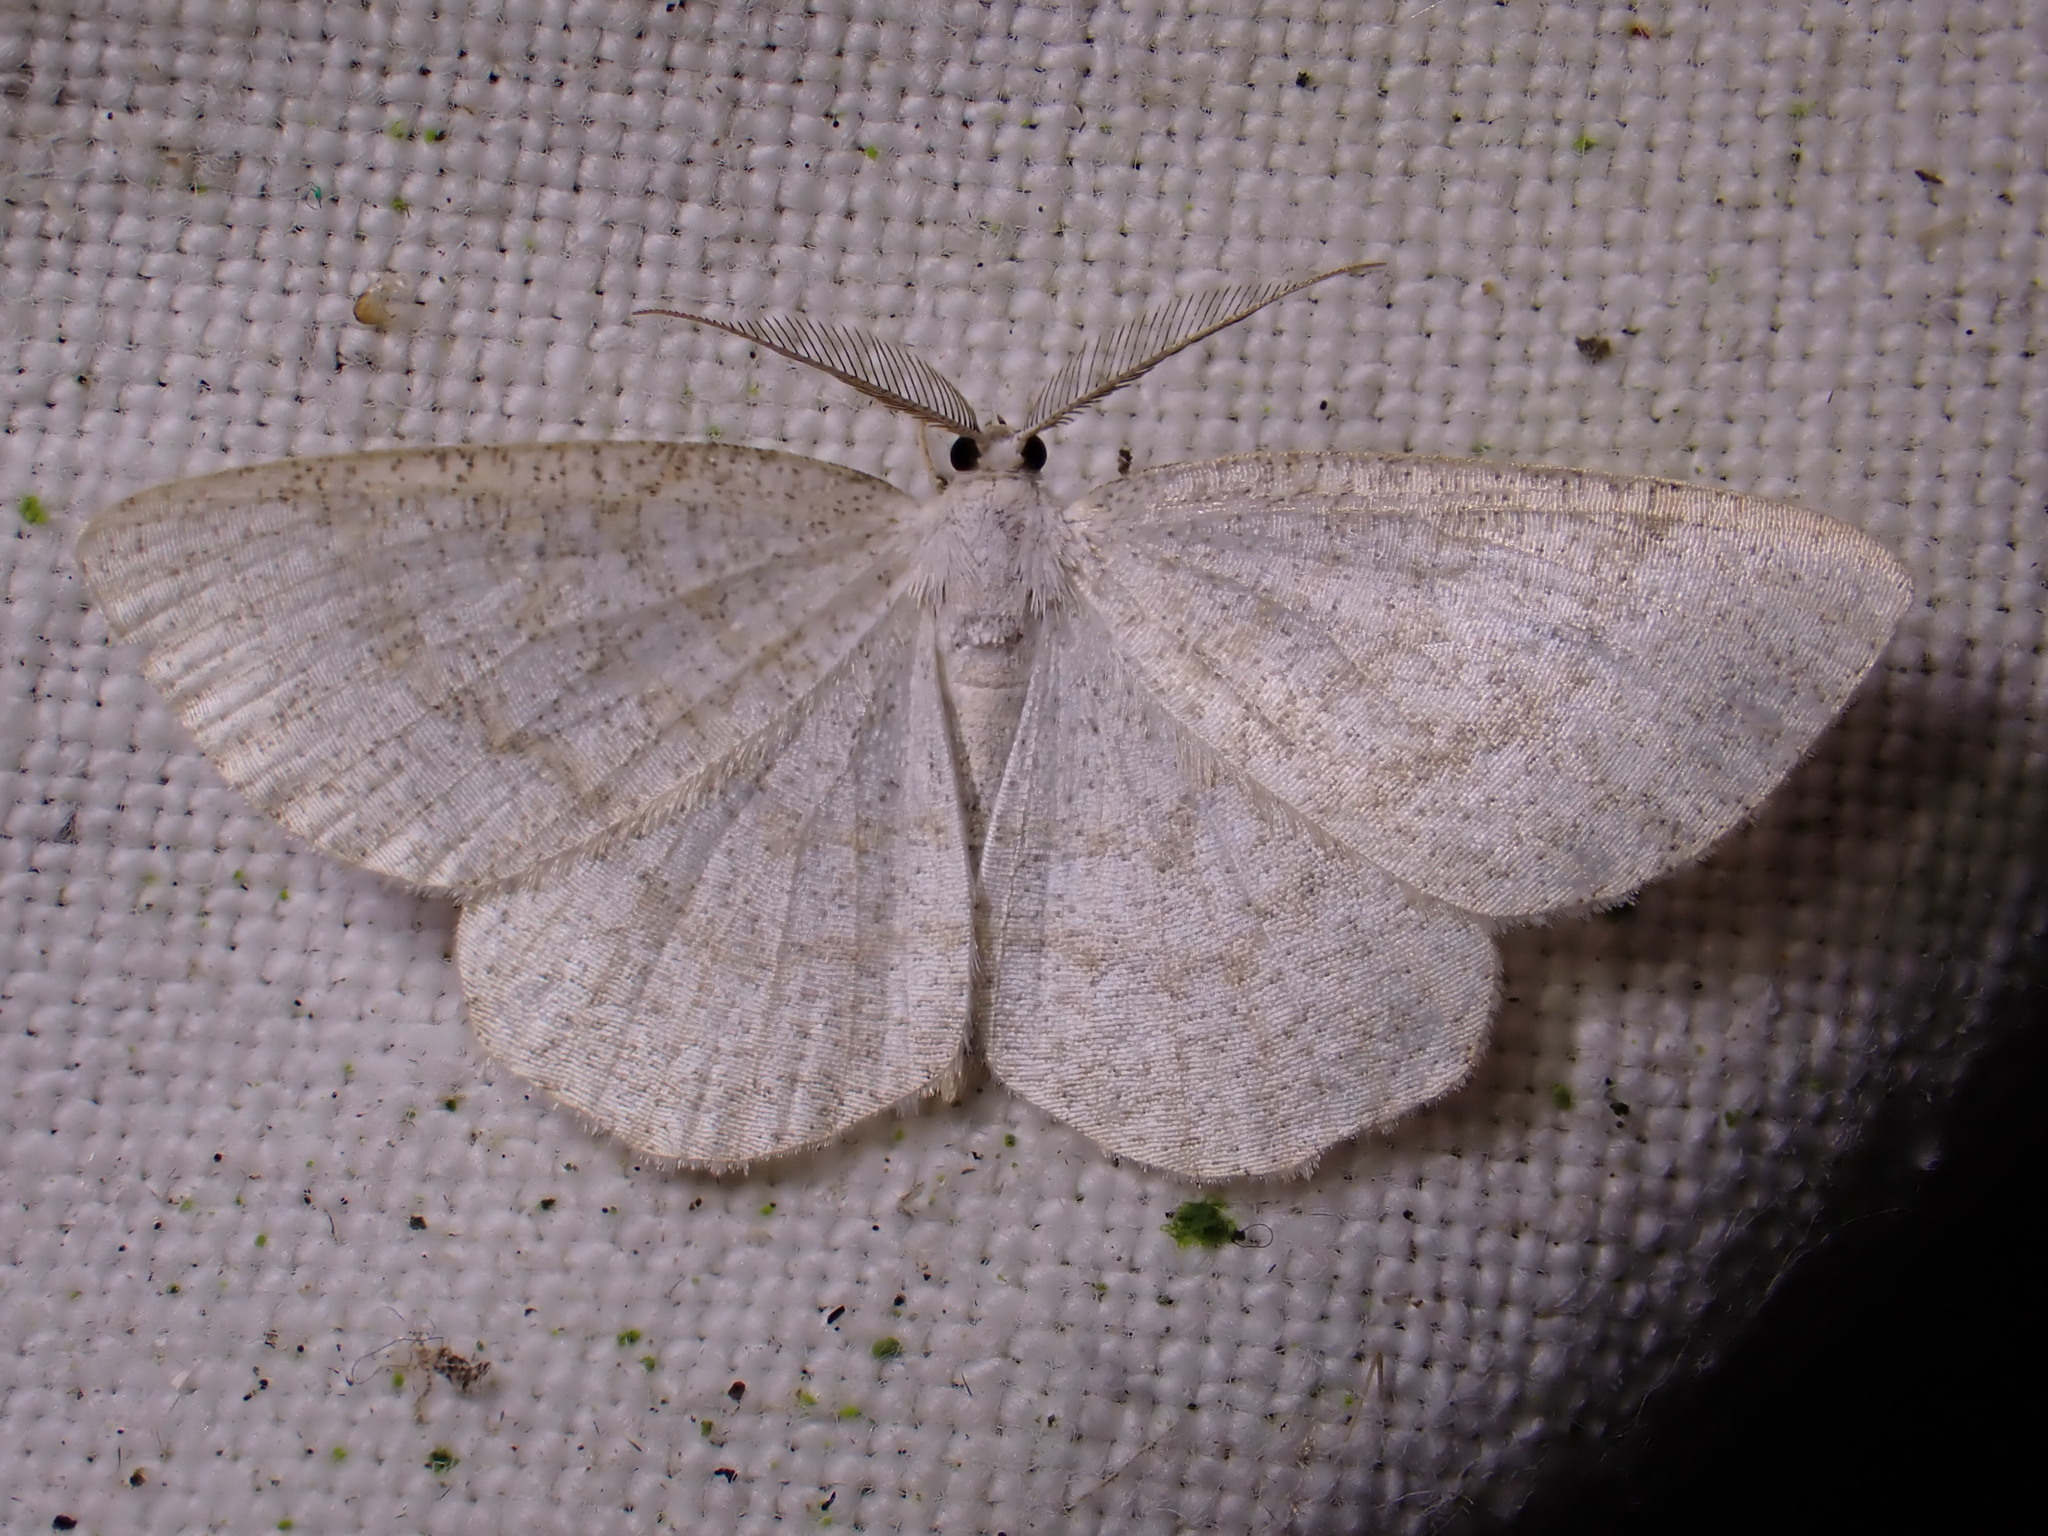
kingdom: Animalia
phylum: Arthropoda
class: Insecta
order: Lepidoptera
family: Geometridae
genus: Cabera
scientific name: Cabera exanthemata
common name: Common wave
